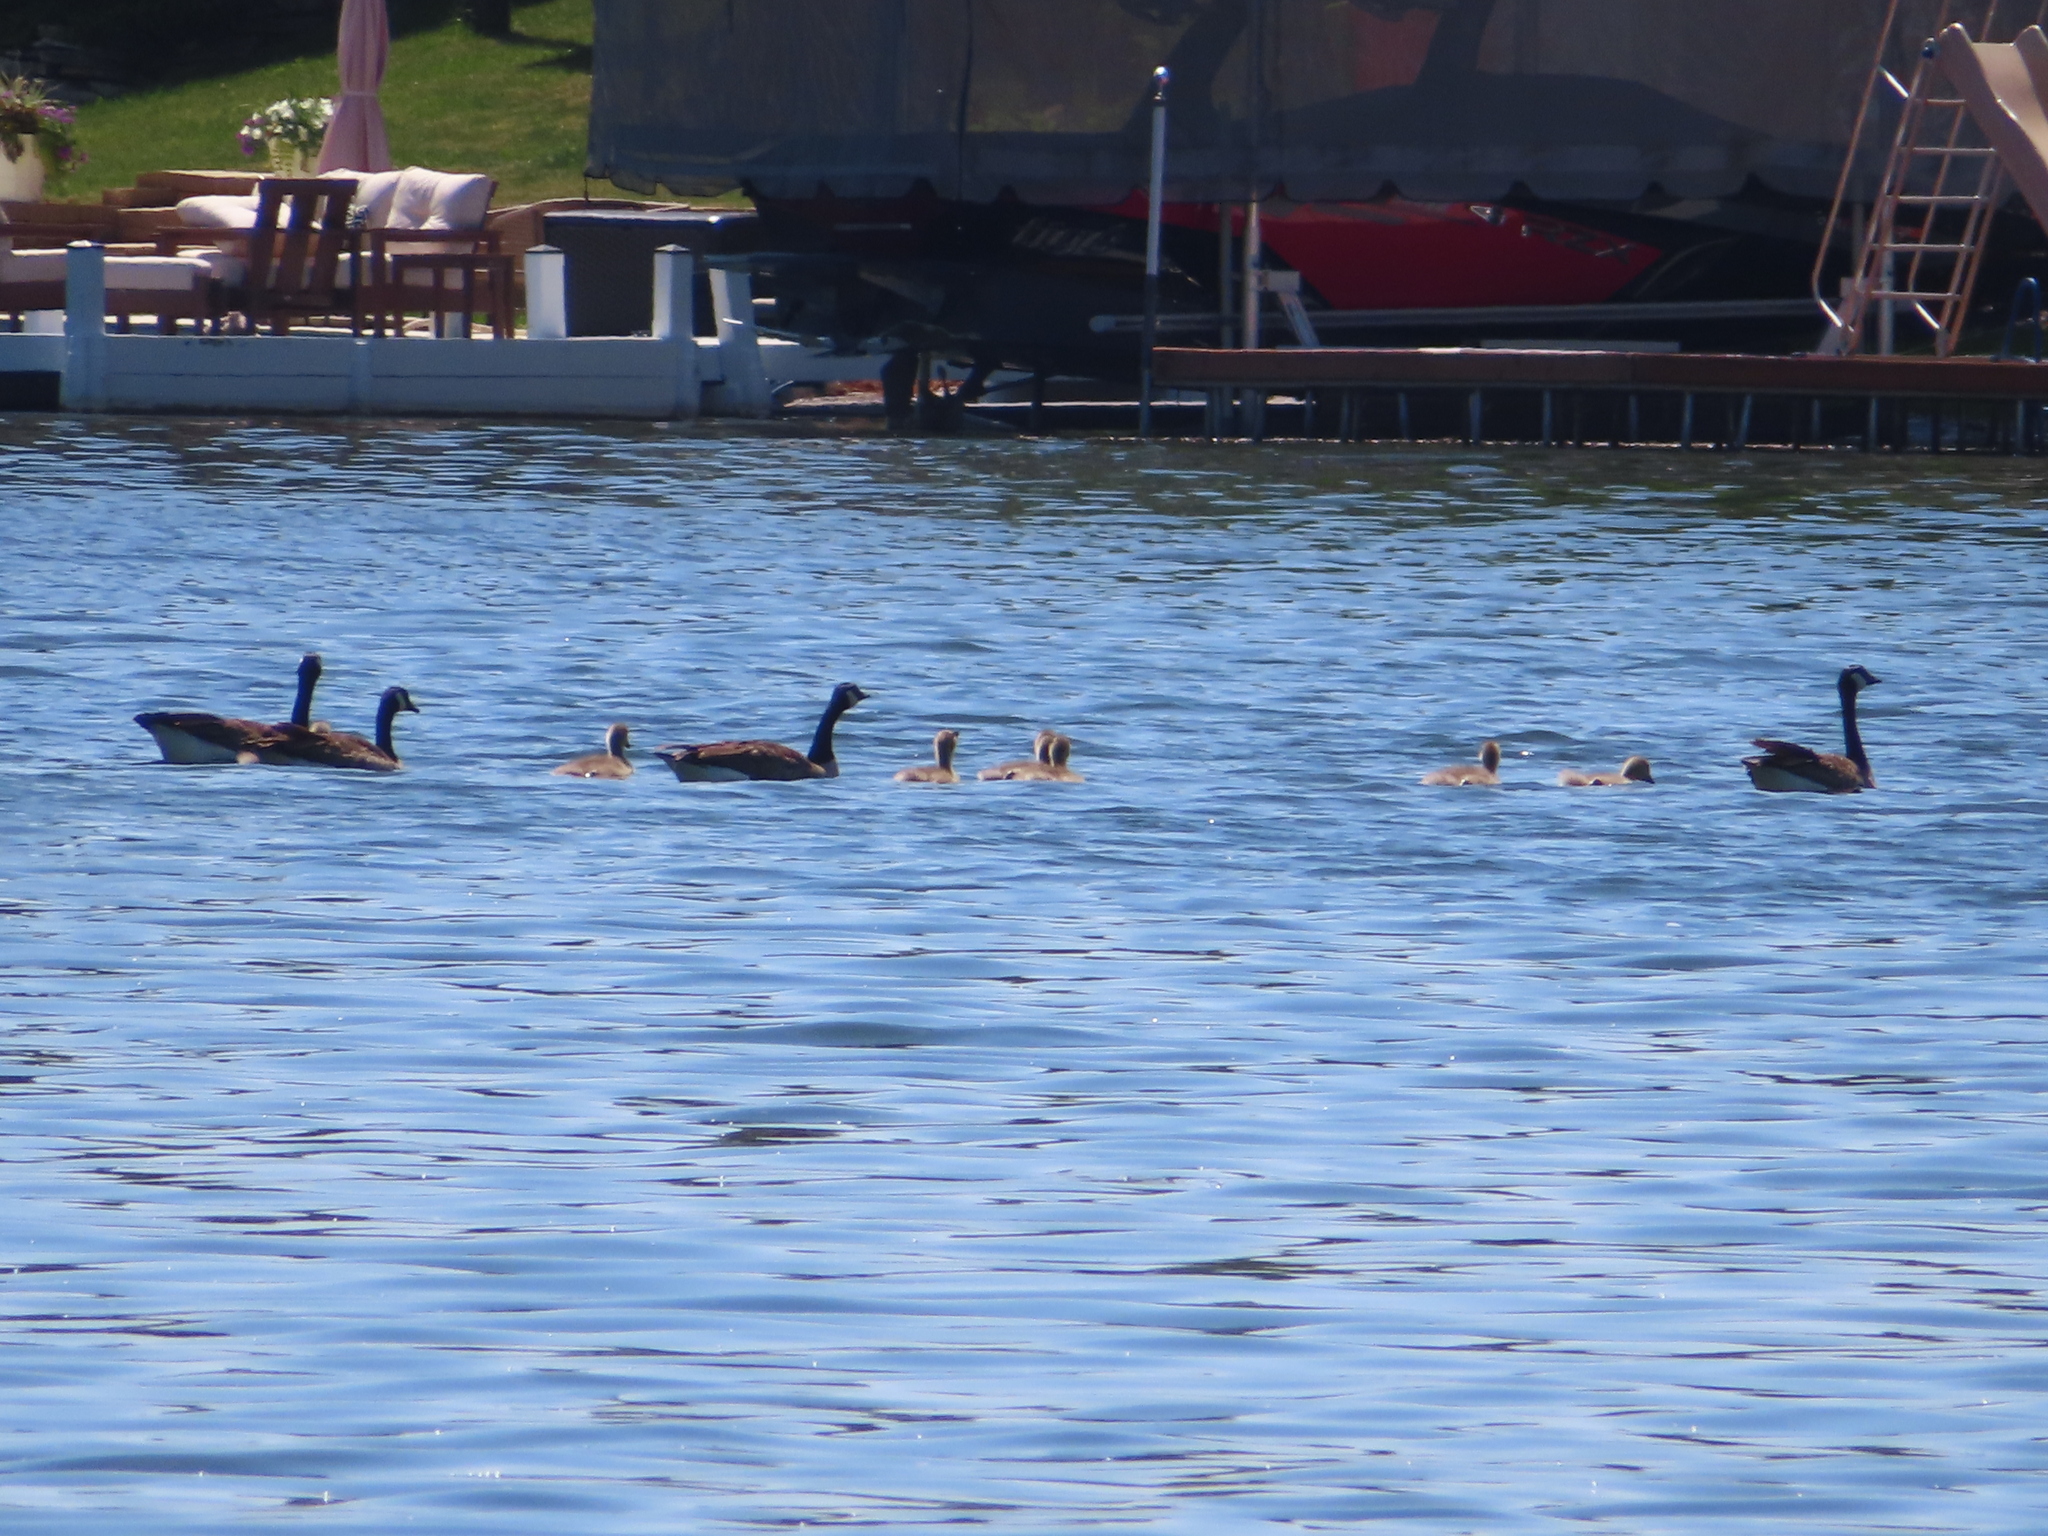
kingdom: Animalia
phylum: Chordata
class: Aves
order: Anseriformes
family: Anatidae
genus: Branta
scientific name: Branta canadensis
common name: Canada goose
